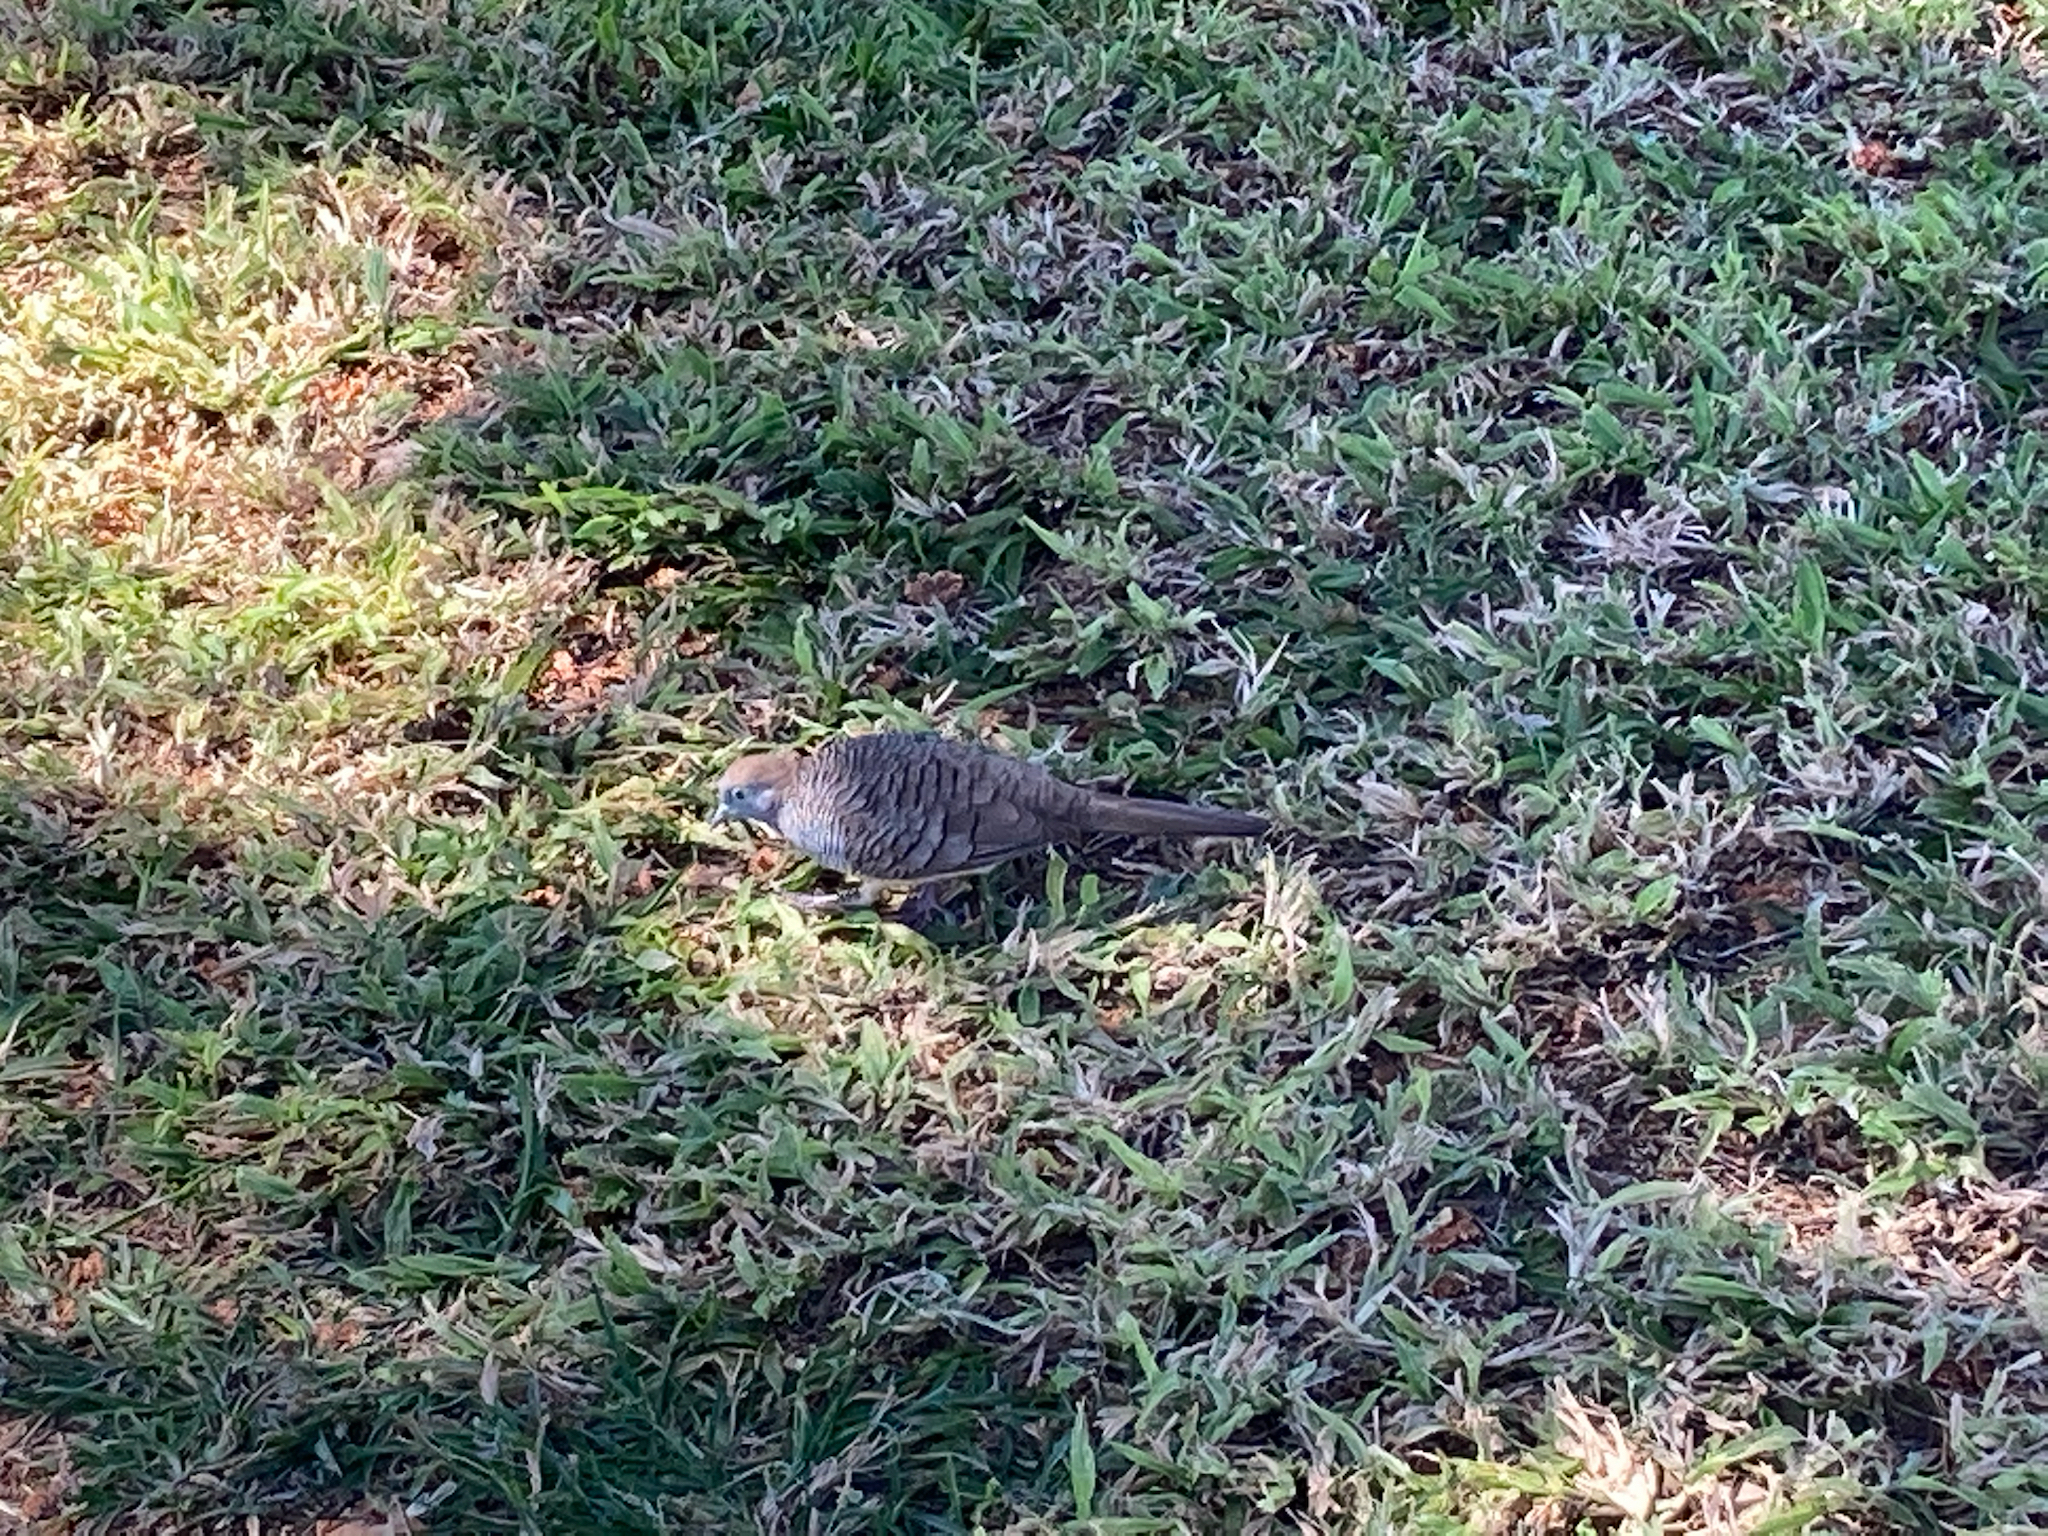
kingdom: Animalia
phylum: Chordata
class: Aves
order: Columbiformes
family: Columbidae
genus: Geopelia
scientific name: Geopelia striata
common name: Zebra dove
